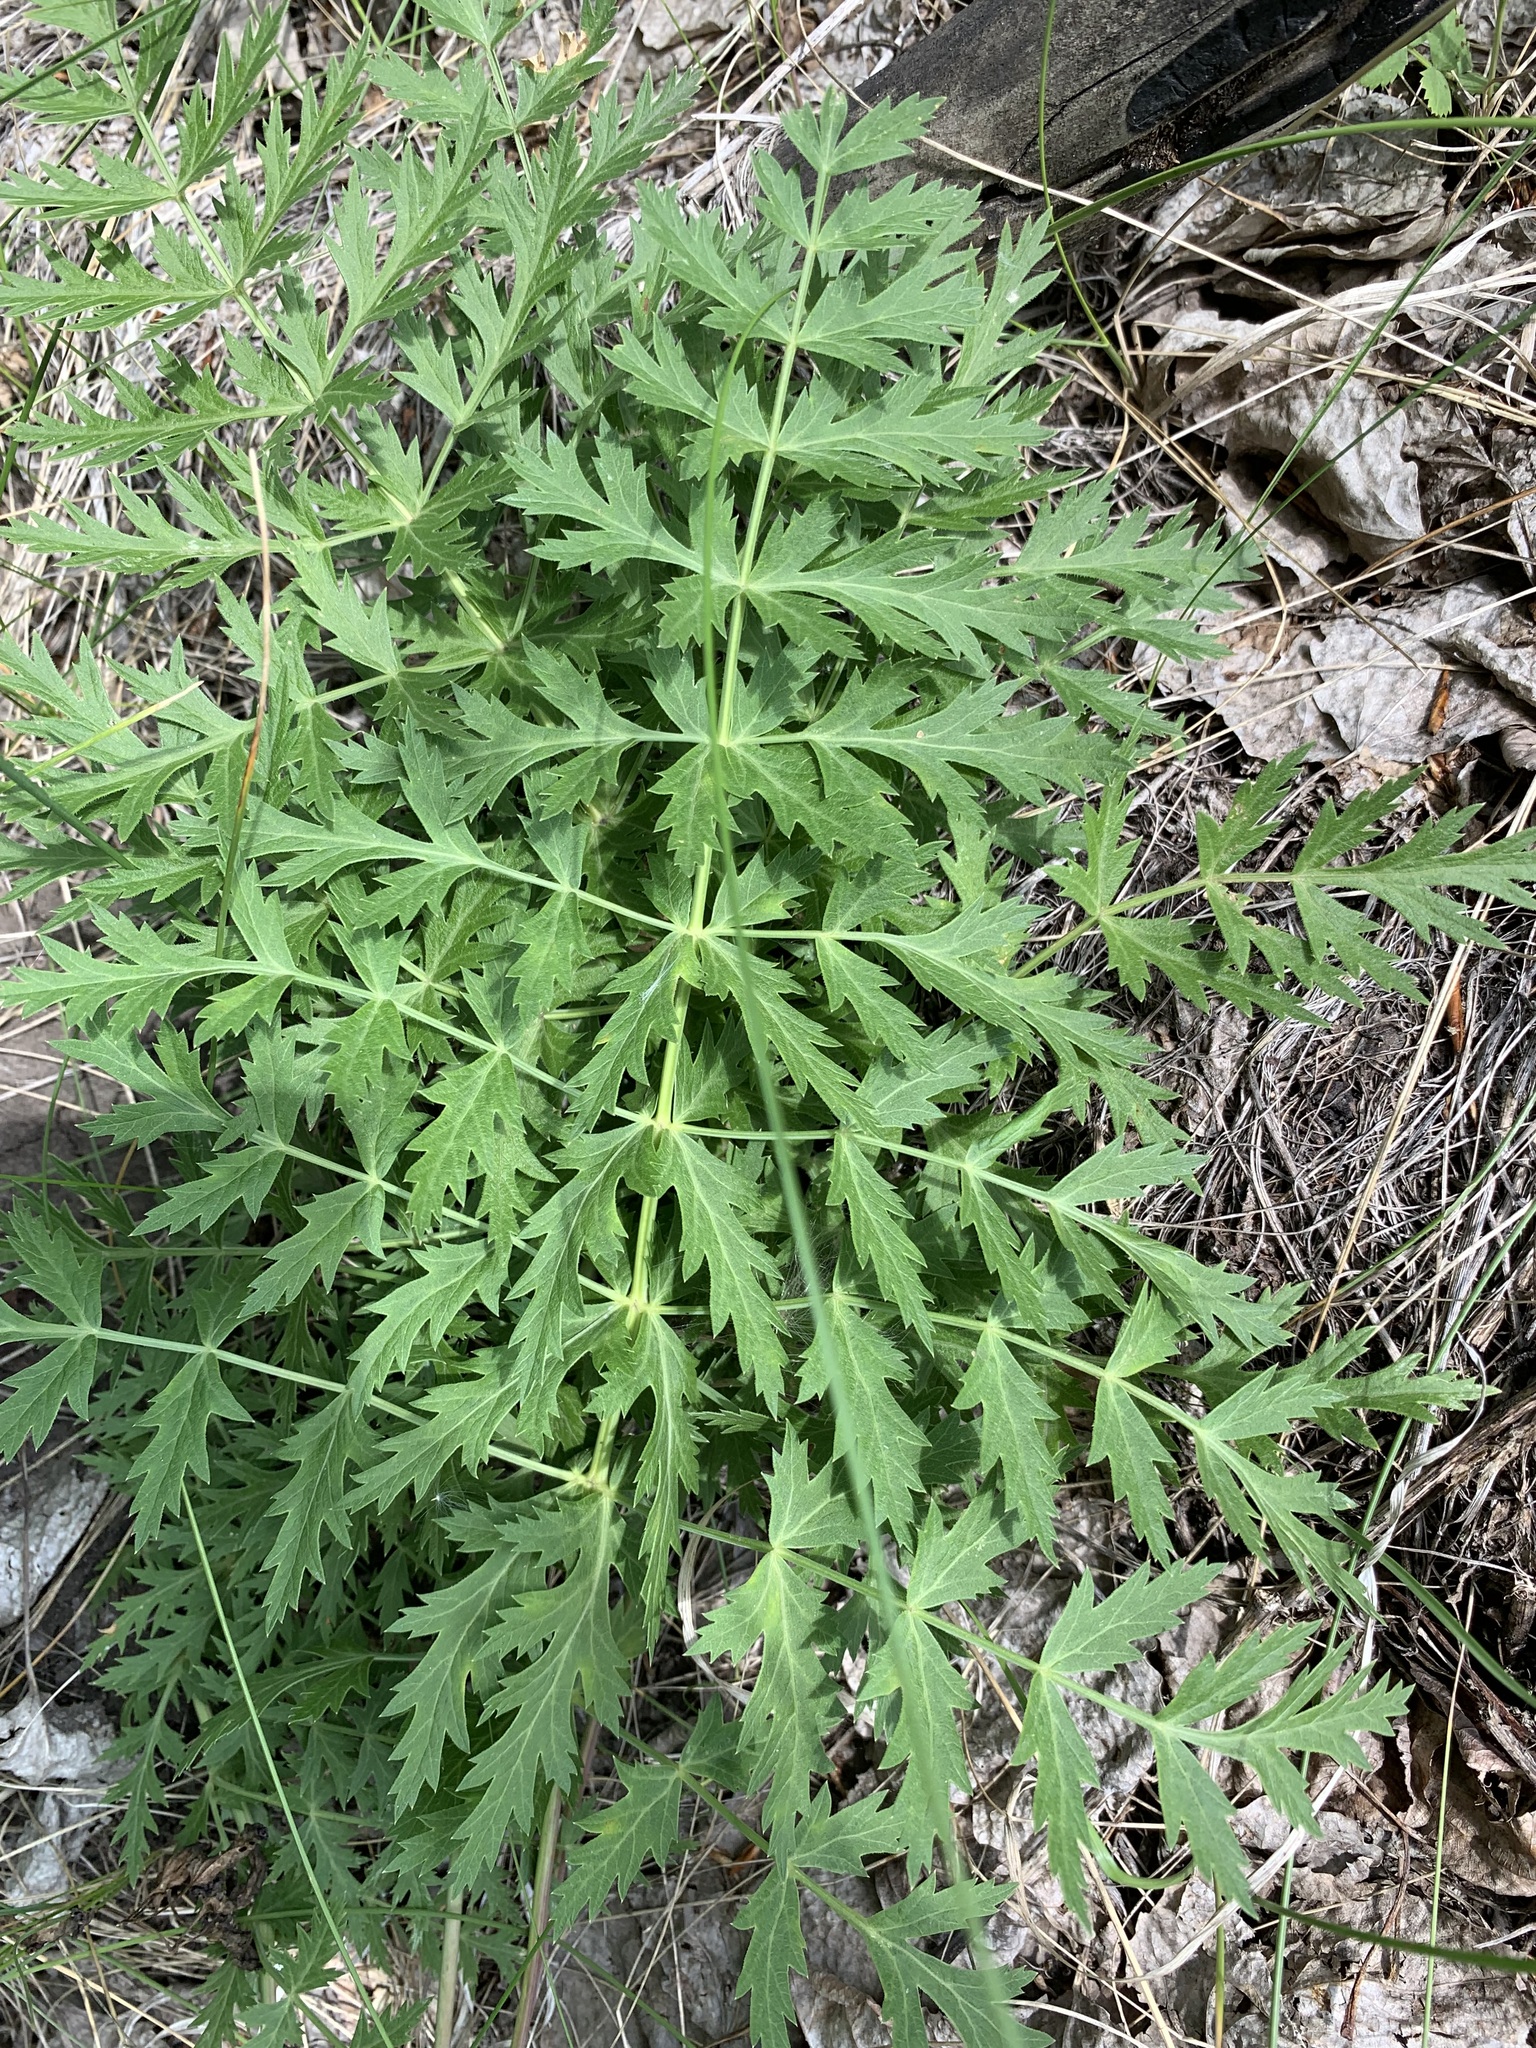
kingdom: Plantae
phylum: Tracheophyta
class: Magnoliopsida
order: Apiales
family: Apiaceae
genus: Seseli
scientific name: Seseli libanotis
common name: Mooncarrot
